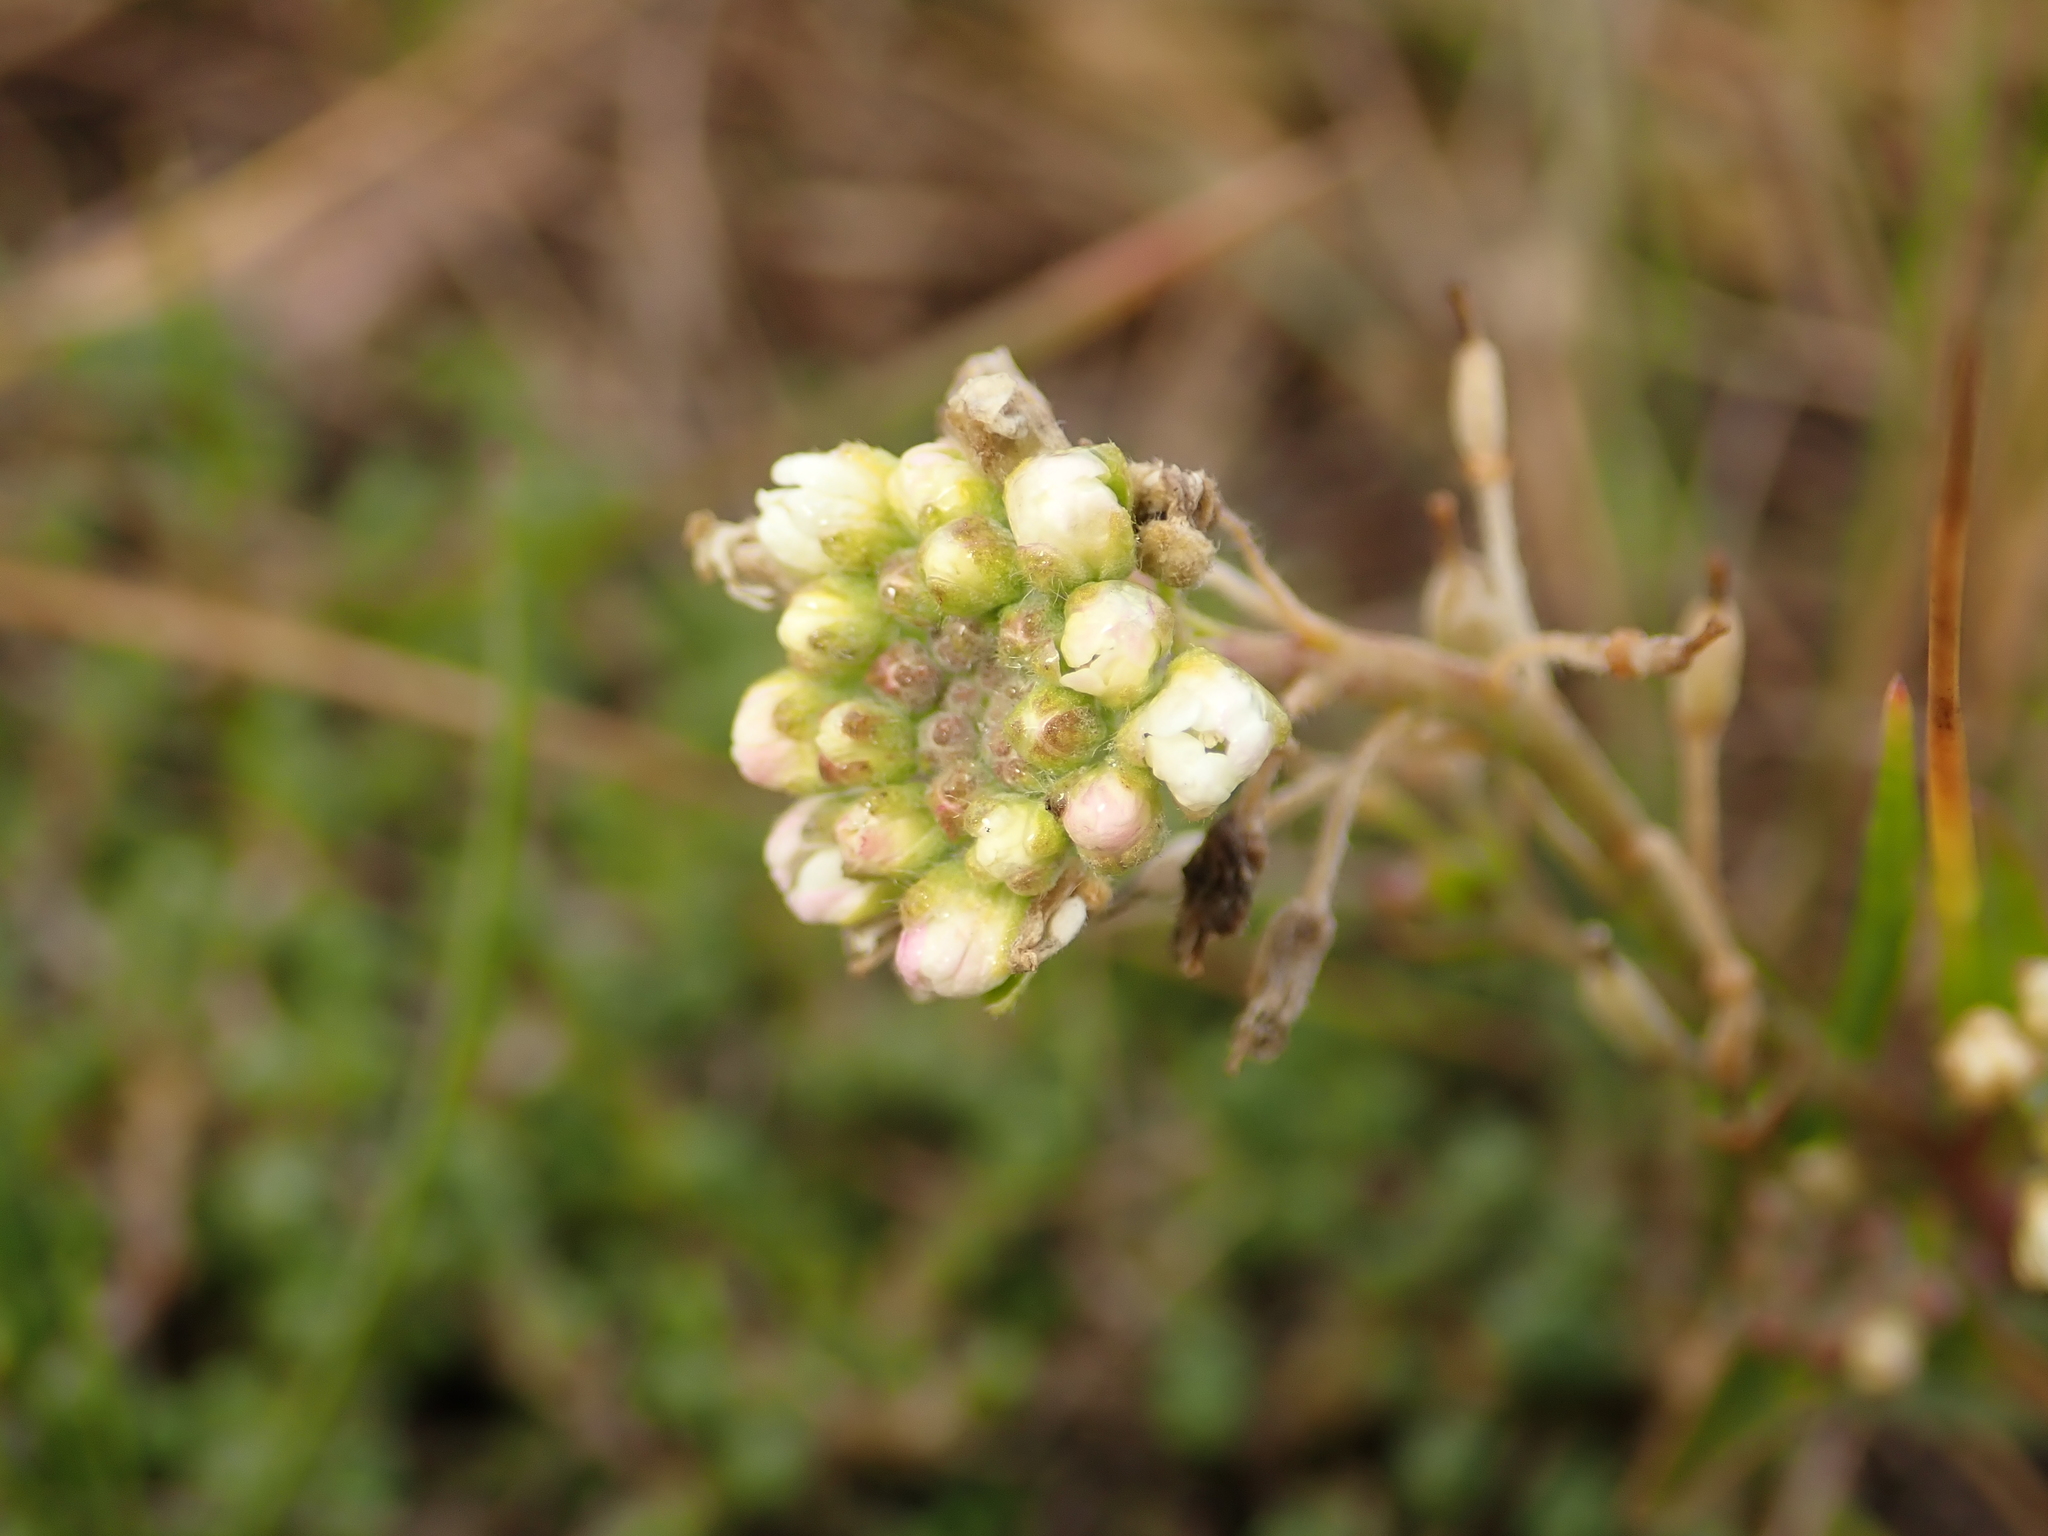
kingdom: Plantae
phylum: Tracheophyta
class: Magnoliopsida
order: Brassicales
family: Brassicaceae
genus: Berteroa
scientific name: Berteroa incana
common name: Hoary alison
